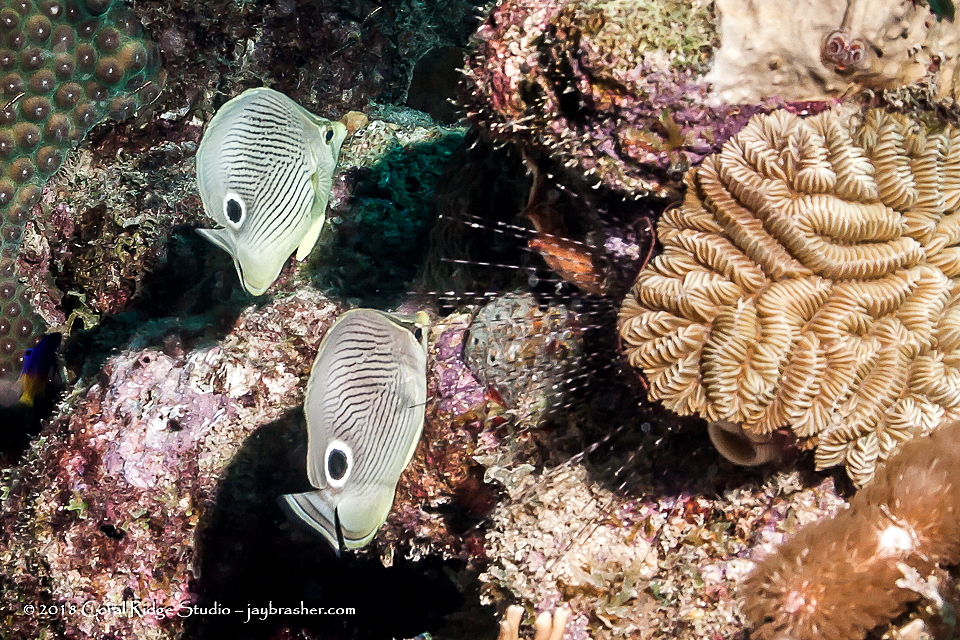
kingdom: Animalia
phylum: Chordata
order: Perciformes
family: Chaetodontidae
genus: Chaetodon
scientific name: Chaetodon capistratus
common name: Kete
